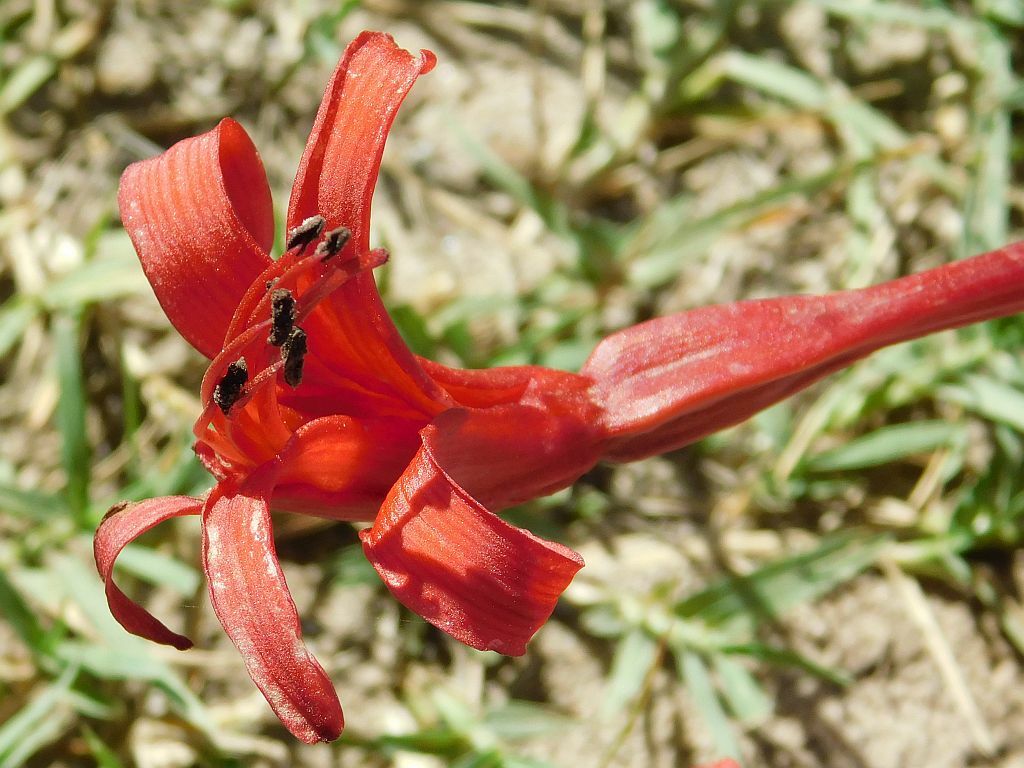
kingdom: Plantae
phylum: Tracheophyta
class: Liliopsida
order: Asparagales
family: Amaryllidaceae
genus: Brunsvigia
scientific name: Brunsvigia orientalis
